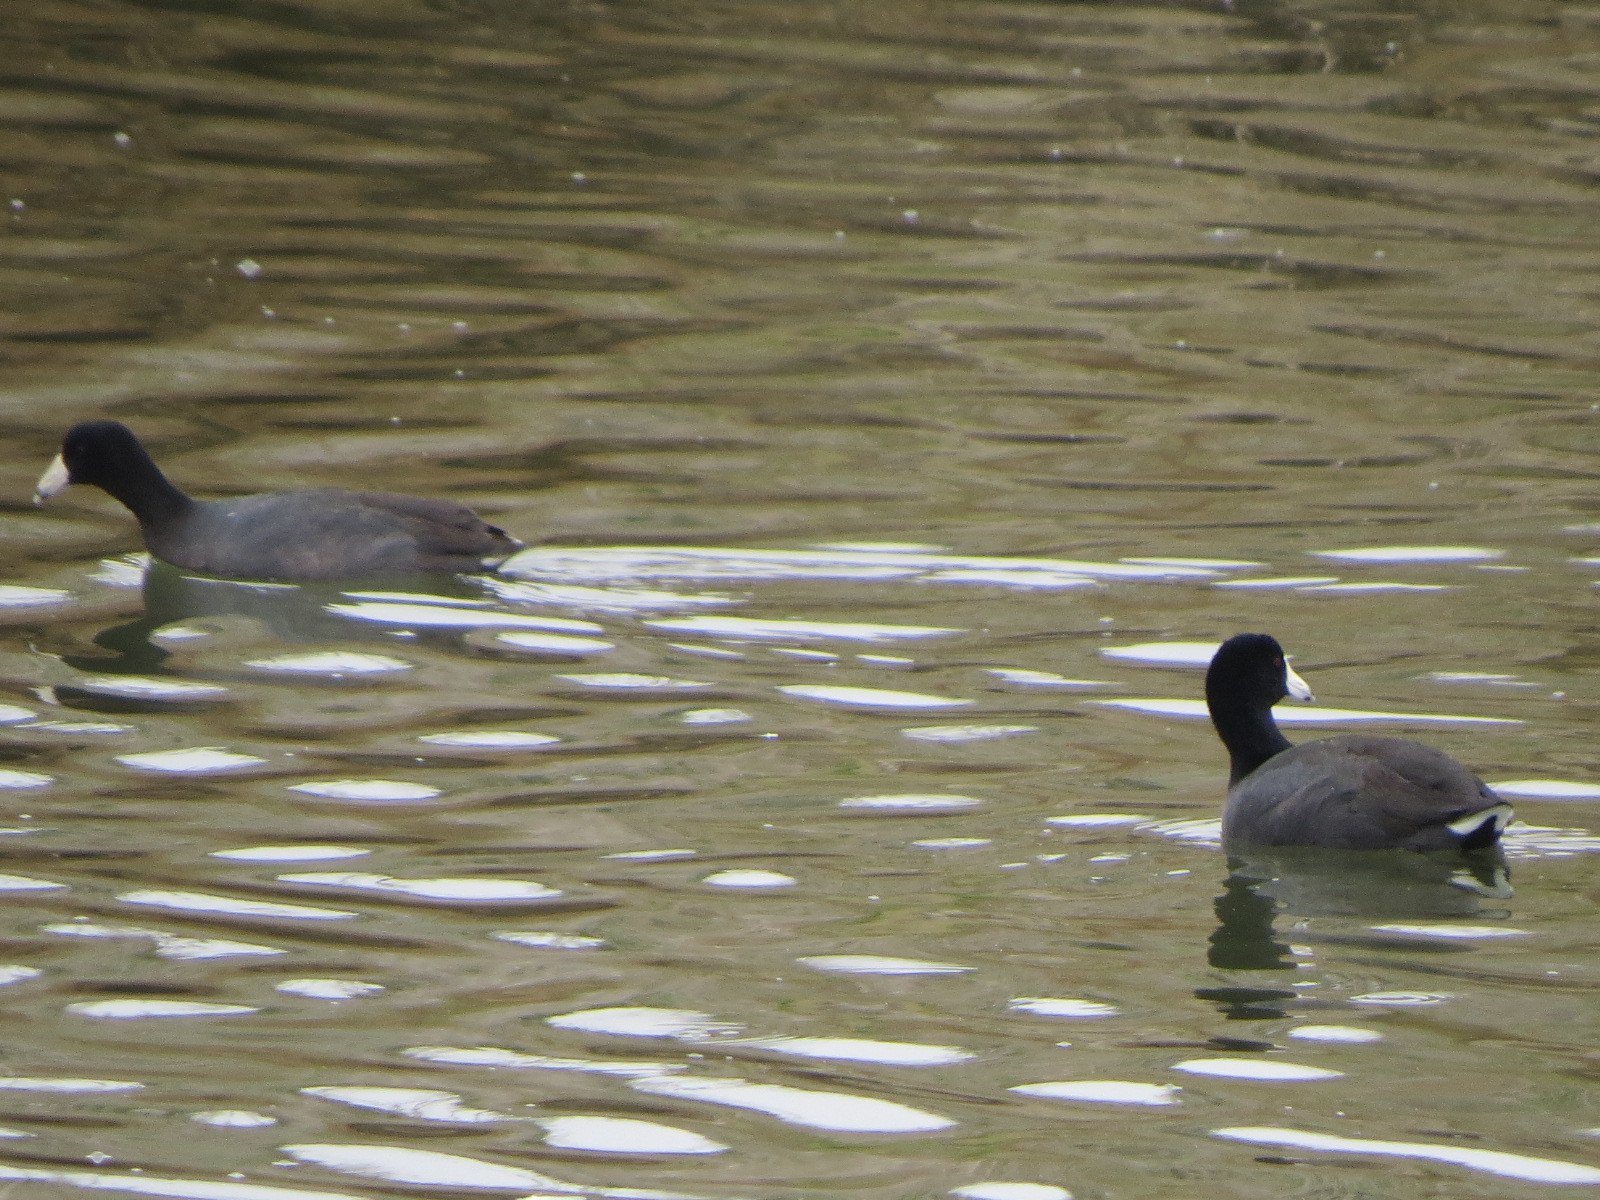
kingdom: Animalia
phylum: Chordata
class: Aves
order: Gruiformes
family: Rallidae
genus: Fulica
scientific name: Fulica americana
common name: American coot
